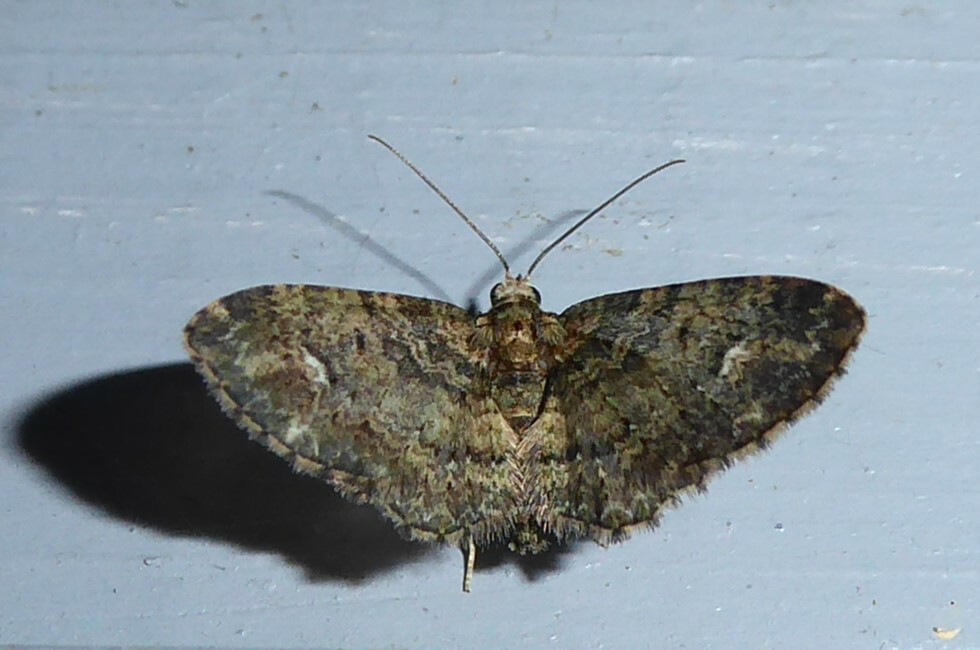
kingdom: Animalia
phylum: Arthropoda
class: Insecta
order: Lepidoptera
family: Geometridae
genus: Pasiphilodes
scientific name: Pasiphilodes testulata
